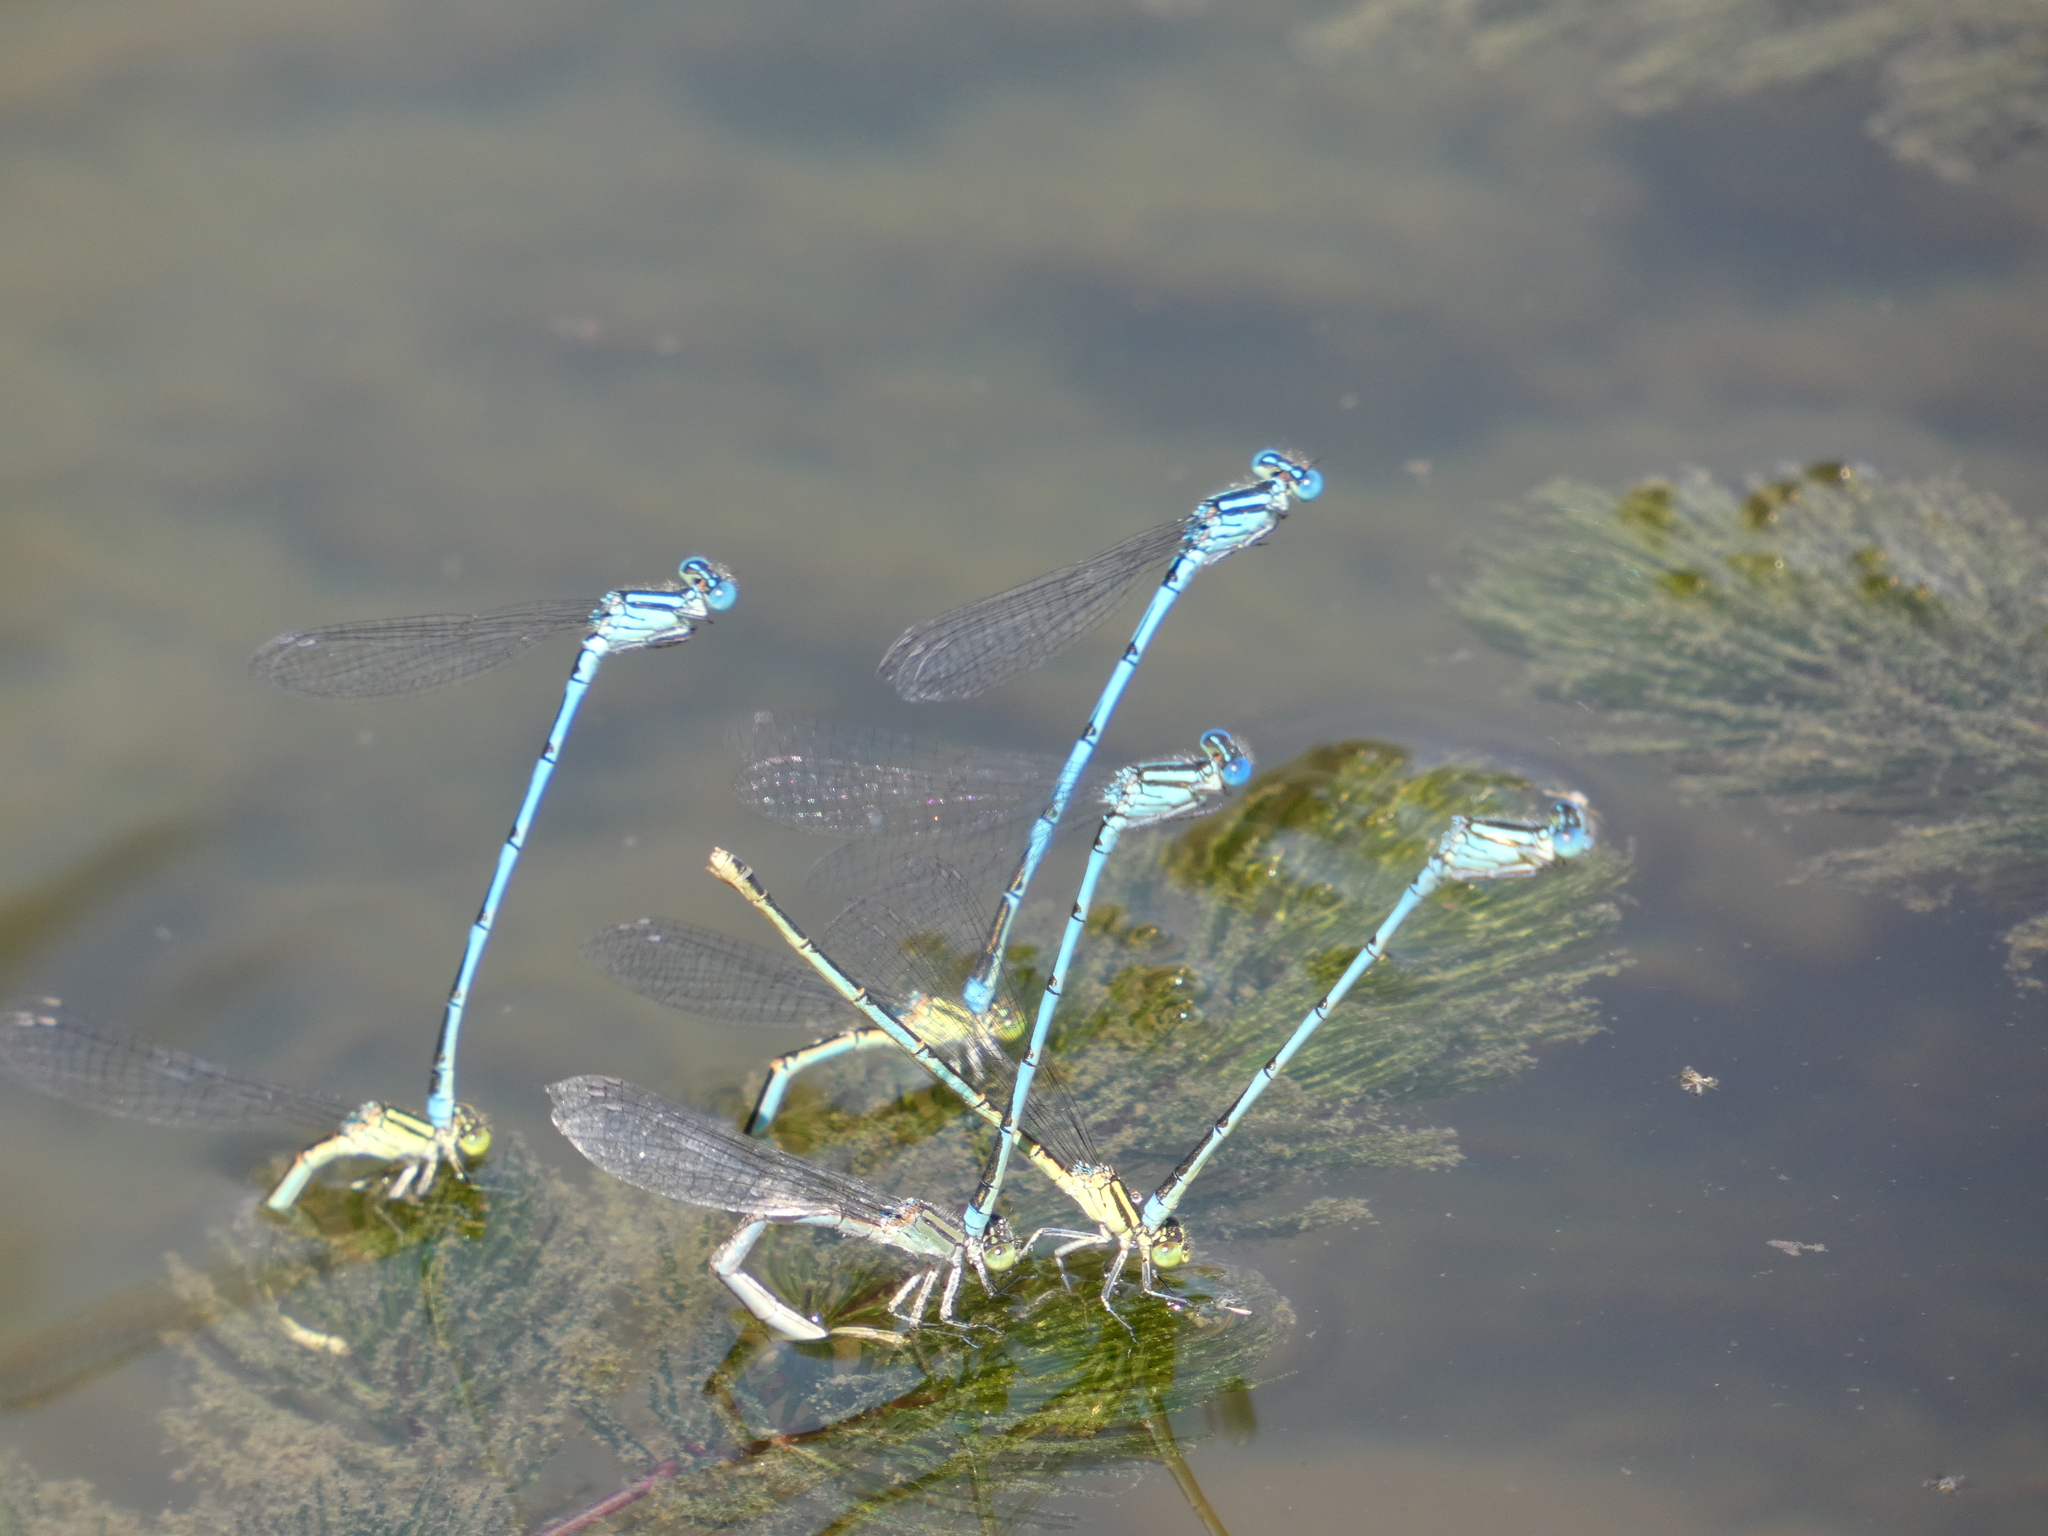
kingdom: Animalia
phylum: Arthropoda
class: Insecta
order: Odonata
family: Coenagrionidae
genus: Erythromma
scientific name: Erythromma lindenii
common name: Blue-eye
